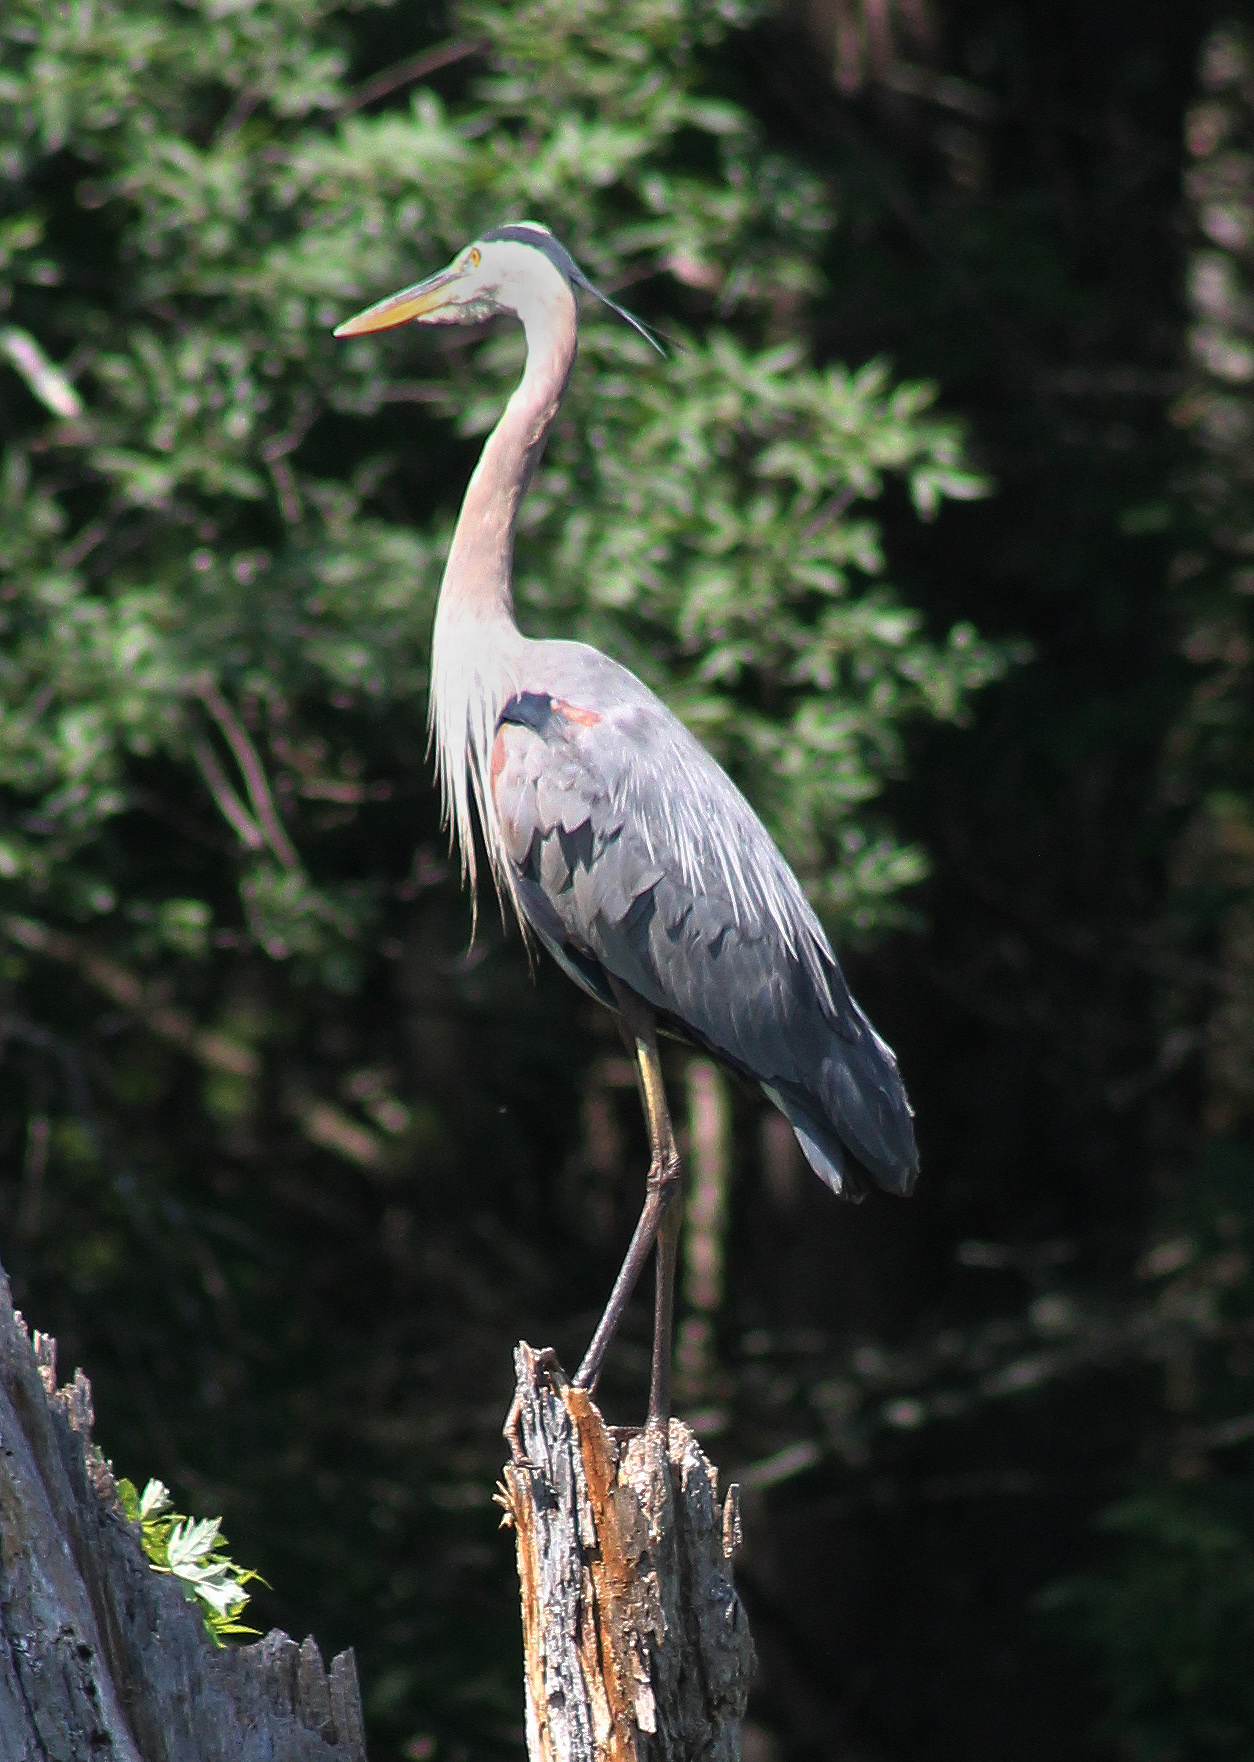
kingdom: Animalia
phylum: Chordata
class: Aves
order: Pelecaniformes
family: Ardeidae
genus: Ardea
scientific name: Ardea herodias
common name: Great blue heron
